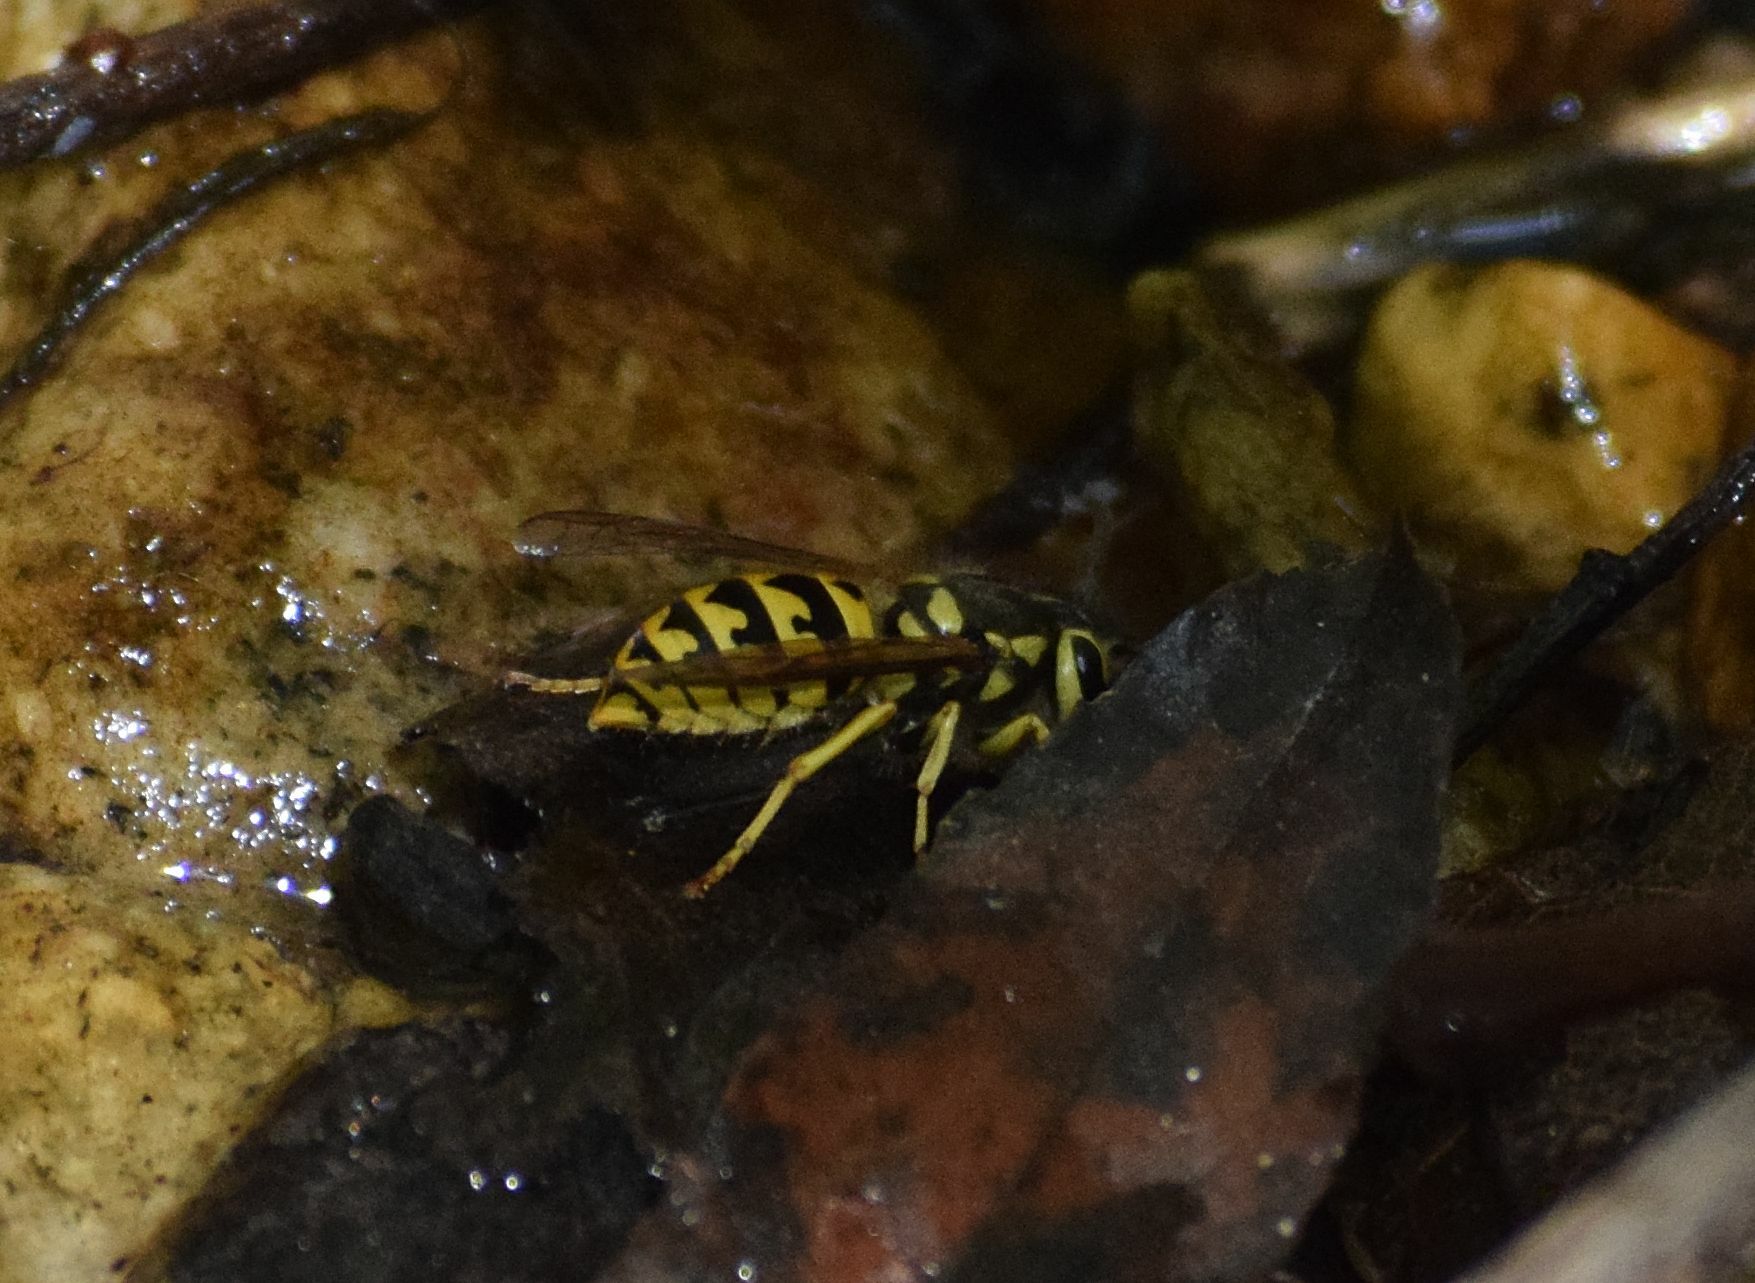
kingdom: Animalia
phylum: Arthropoda
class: Insecta
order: Hymenoptera
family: Vespidae
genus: Vespula
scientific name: Vespula pensylvanica
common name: Western yellowjacket
